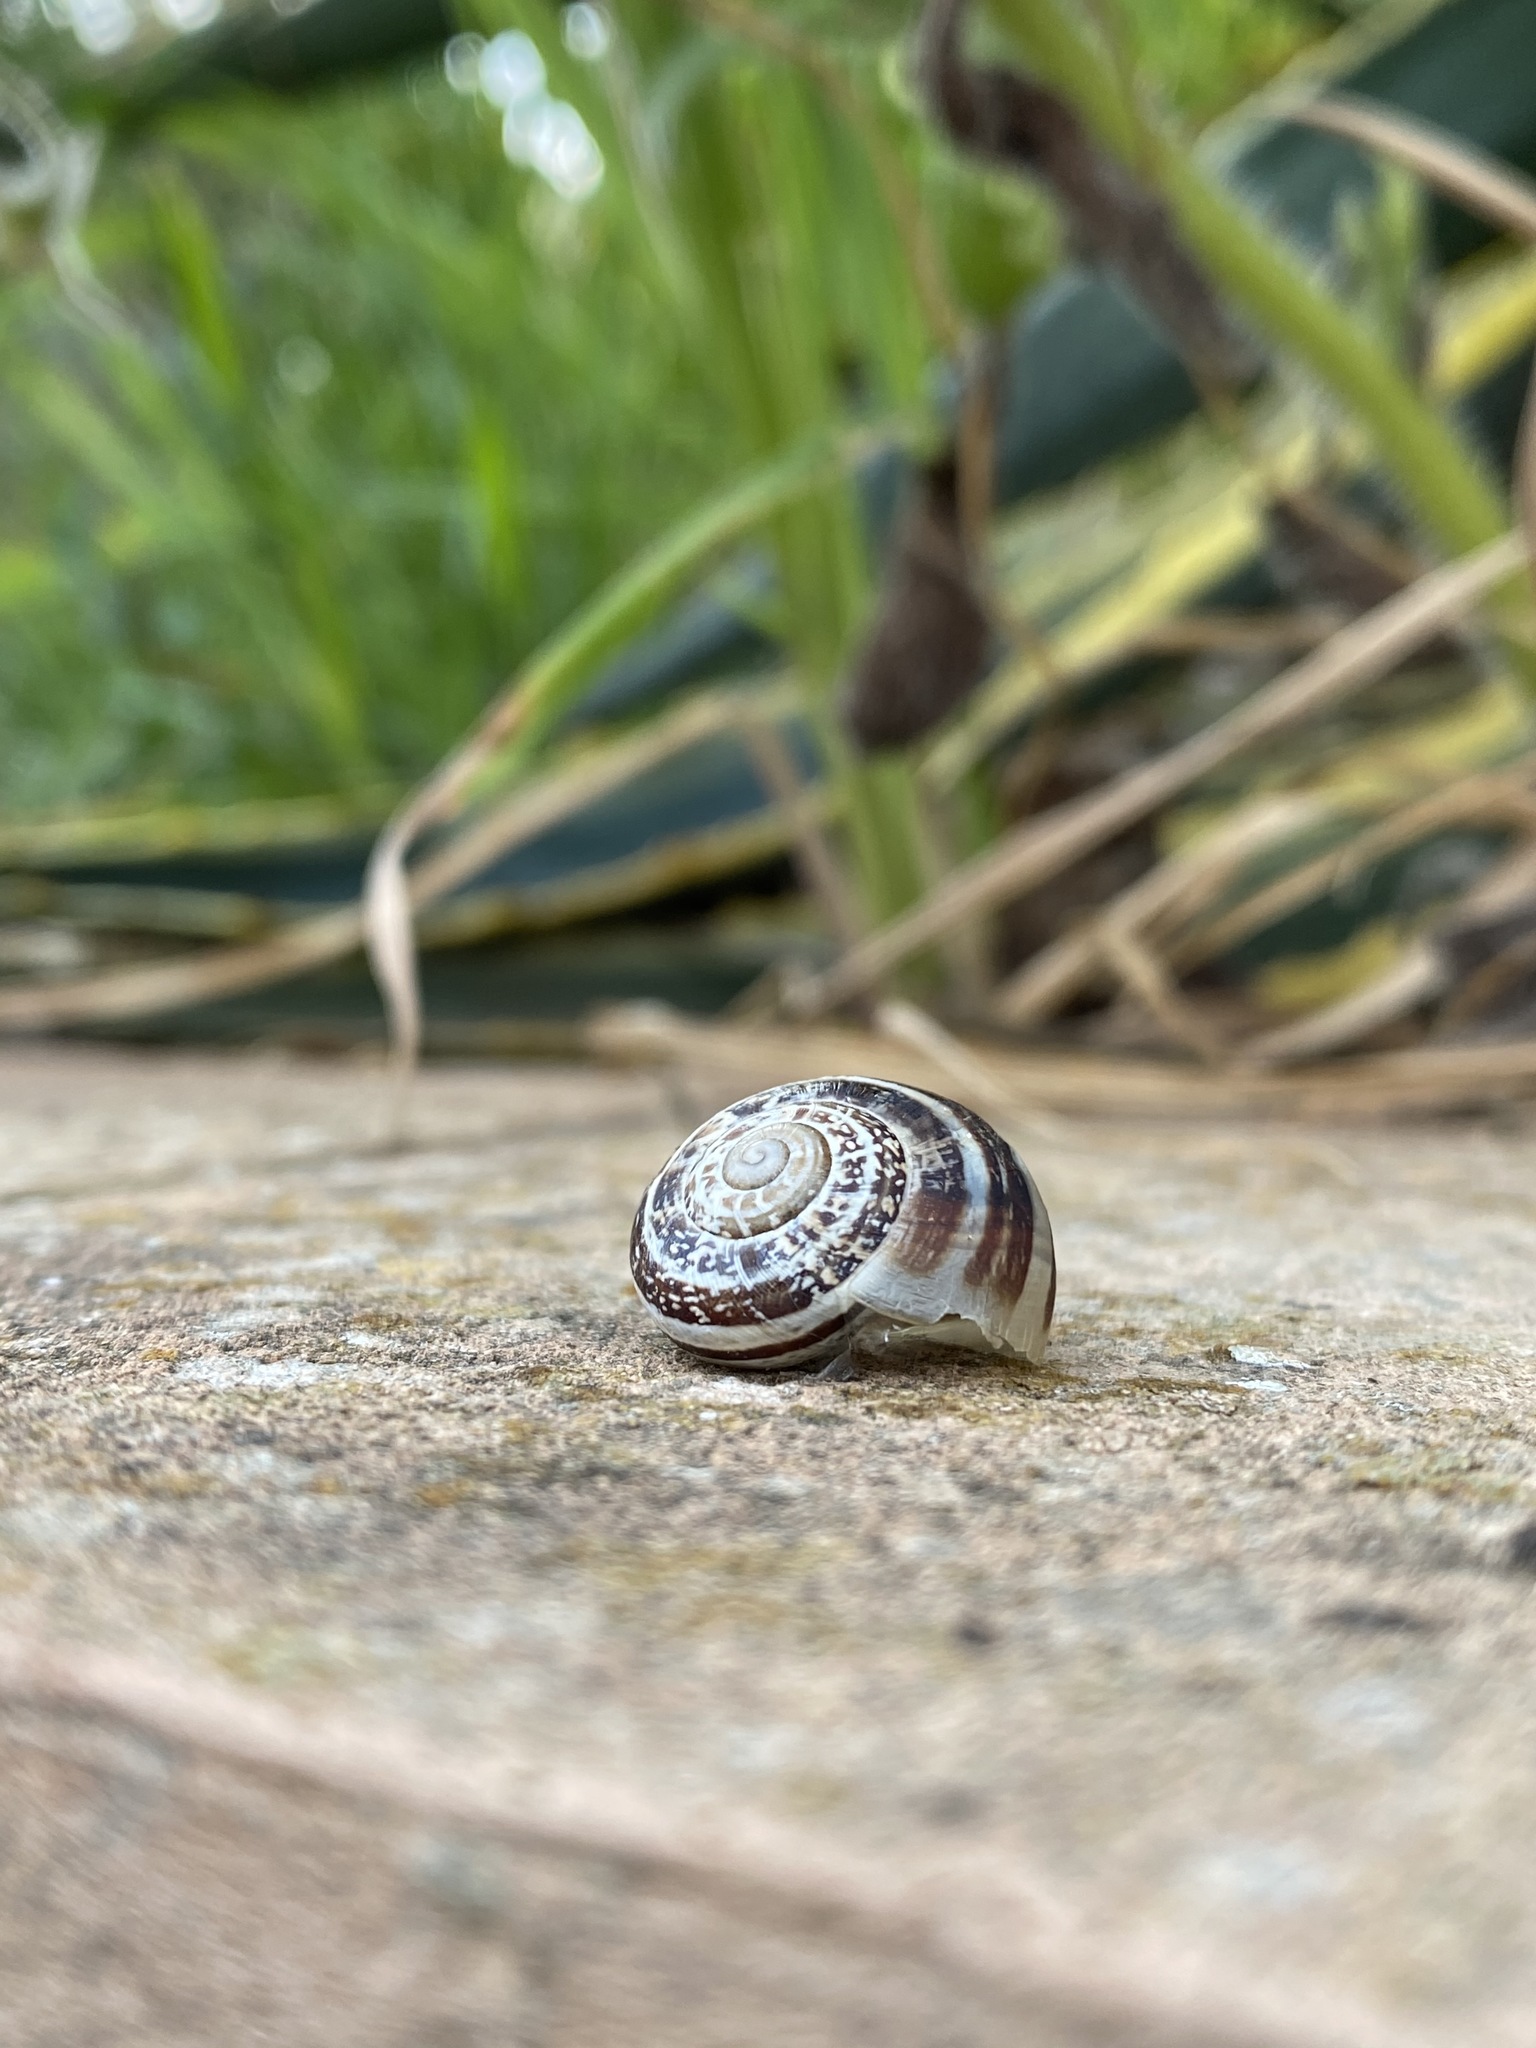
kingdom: Animalia
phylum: Mollusca
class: Gastropoda
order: Stylommatophora
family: Helicidae
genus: Eobania
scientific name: Eobania vermiculata
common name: Chocolateband snail
